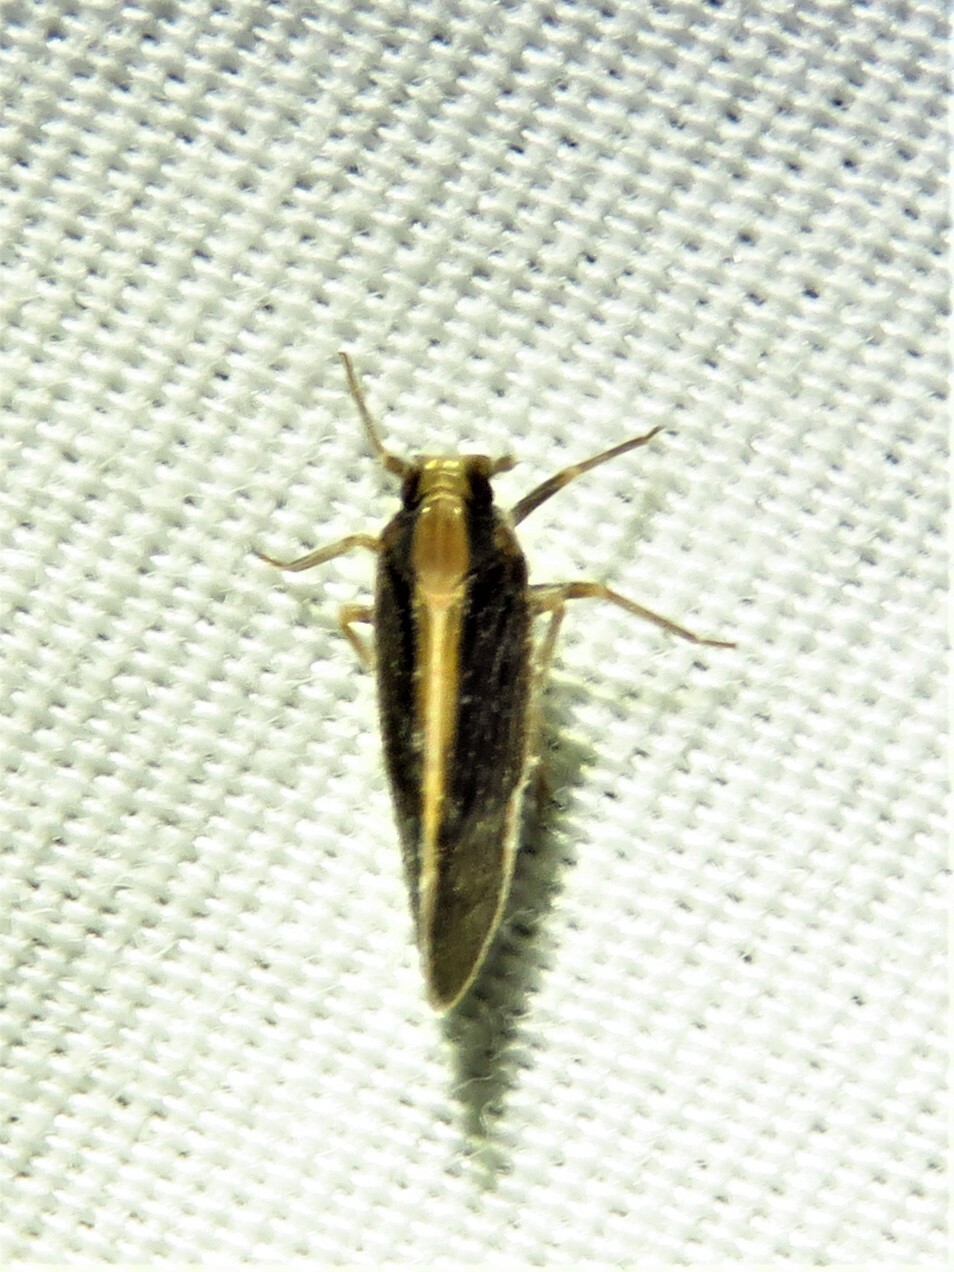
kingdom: Animalia
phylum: Arthropoda
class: Insecta
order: Hemiptera
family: Cixiidae
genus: Pintalia
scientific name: Pintalia delicata
